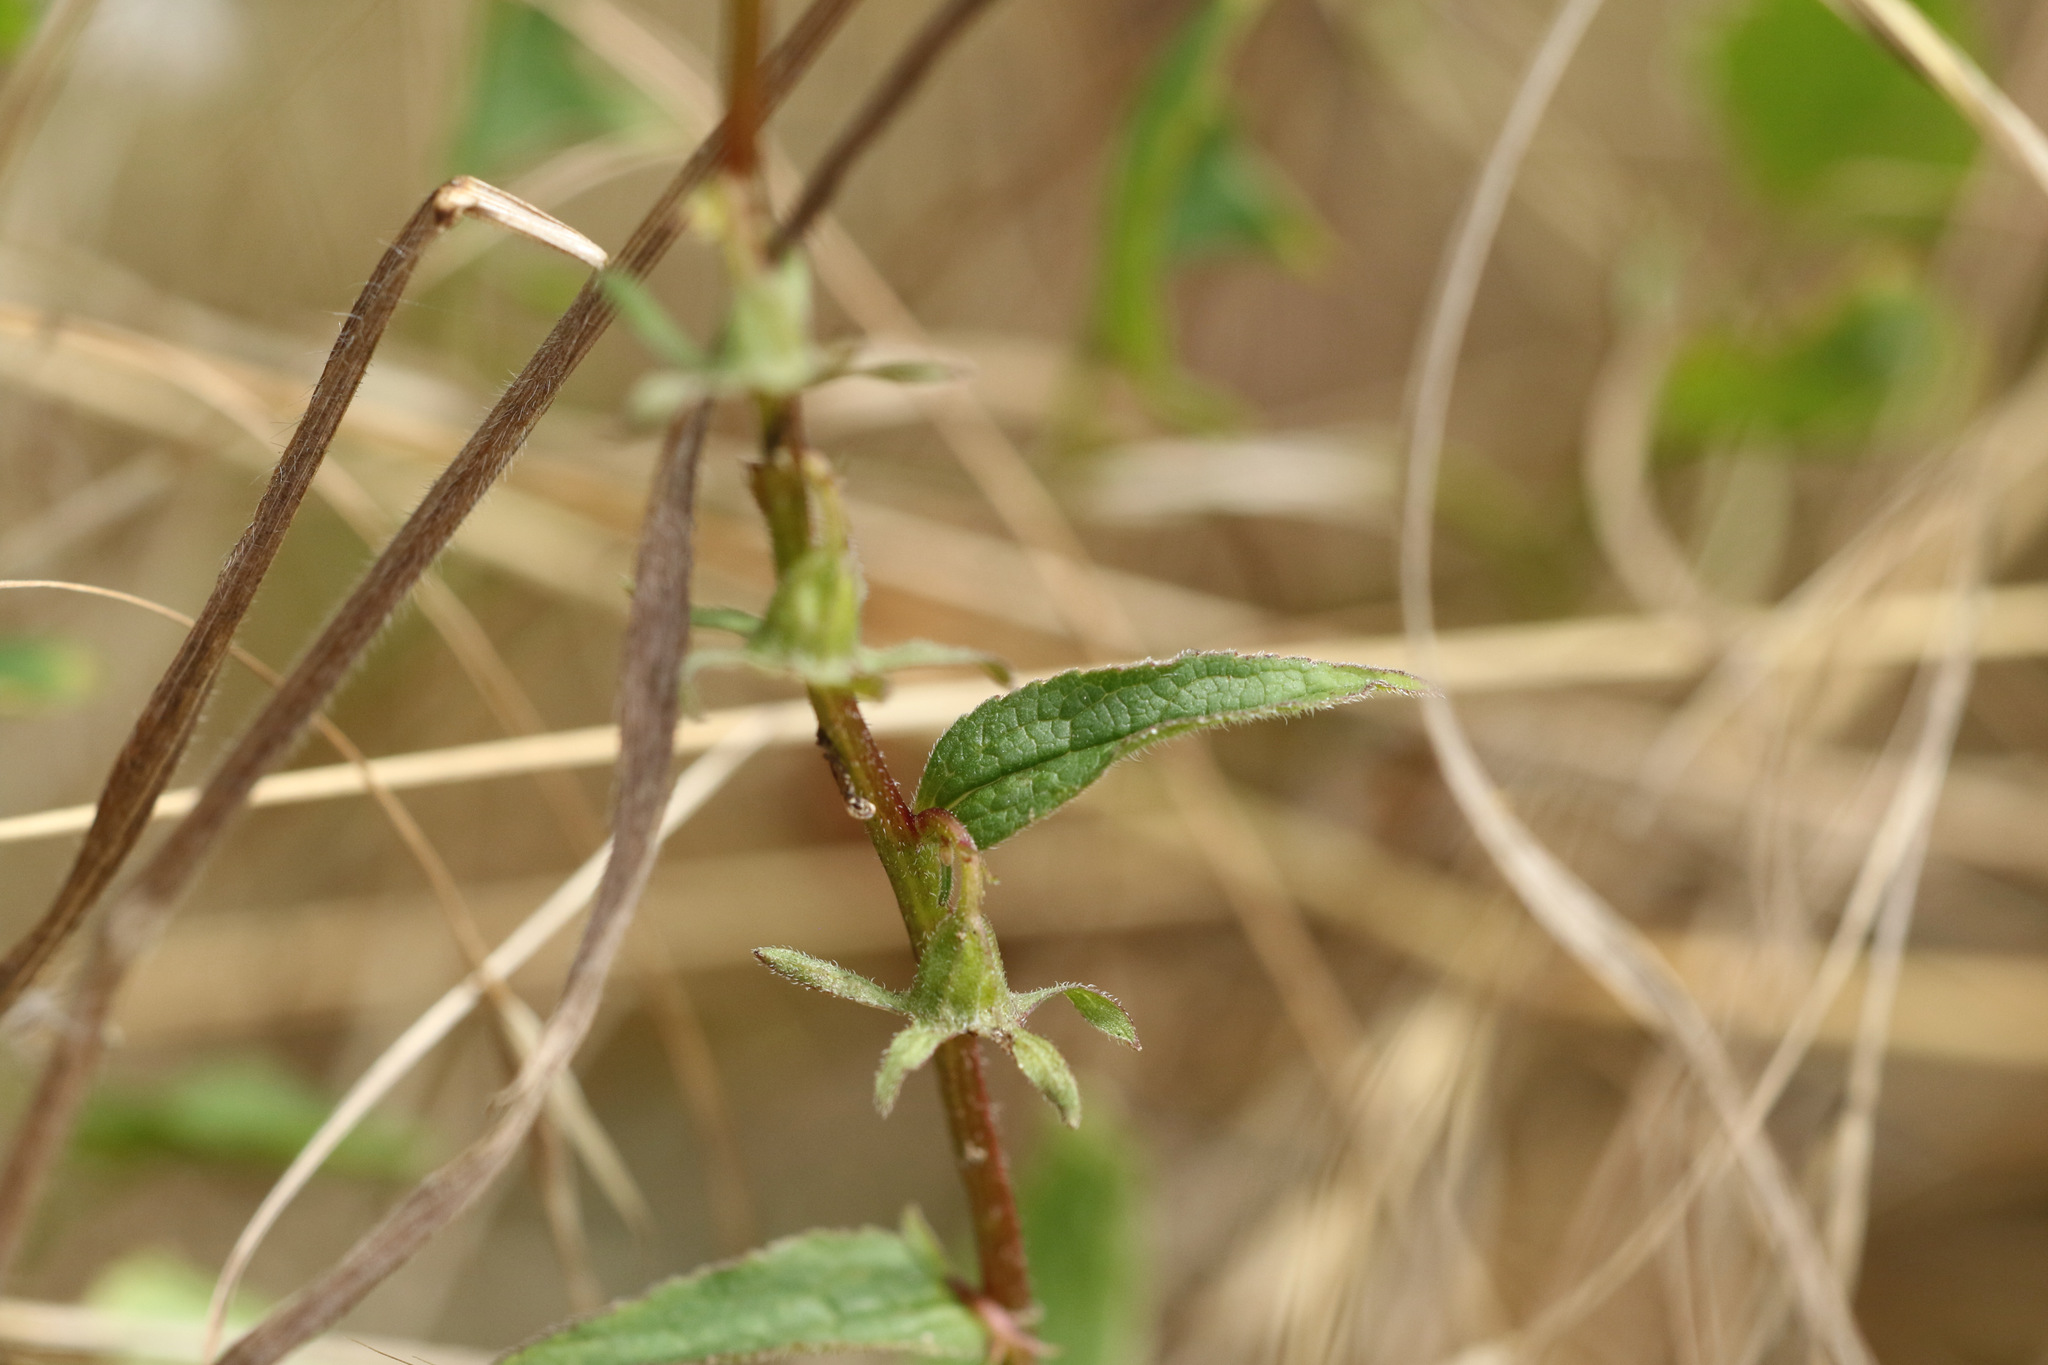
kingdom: Plantae
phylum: Tracheophyta
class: Magnoliopsida
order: Asterales
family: Campanulaceae
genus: Campanula
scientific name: Campanula trachelium
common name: Nettle-leaved bellflower
